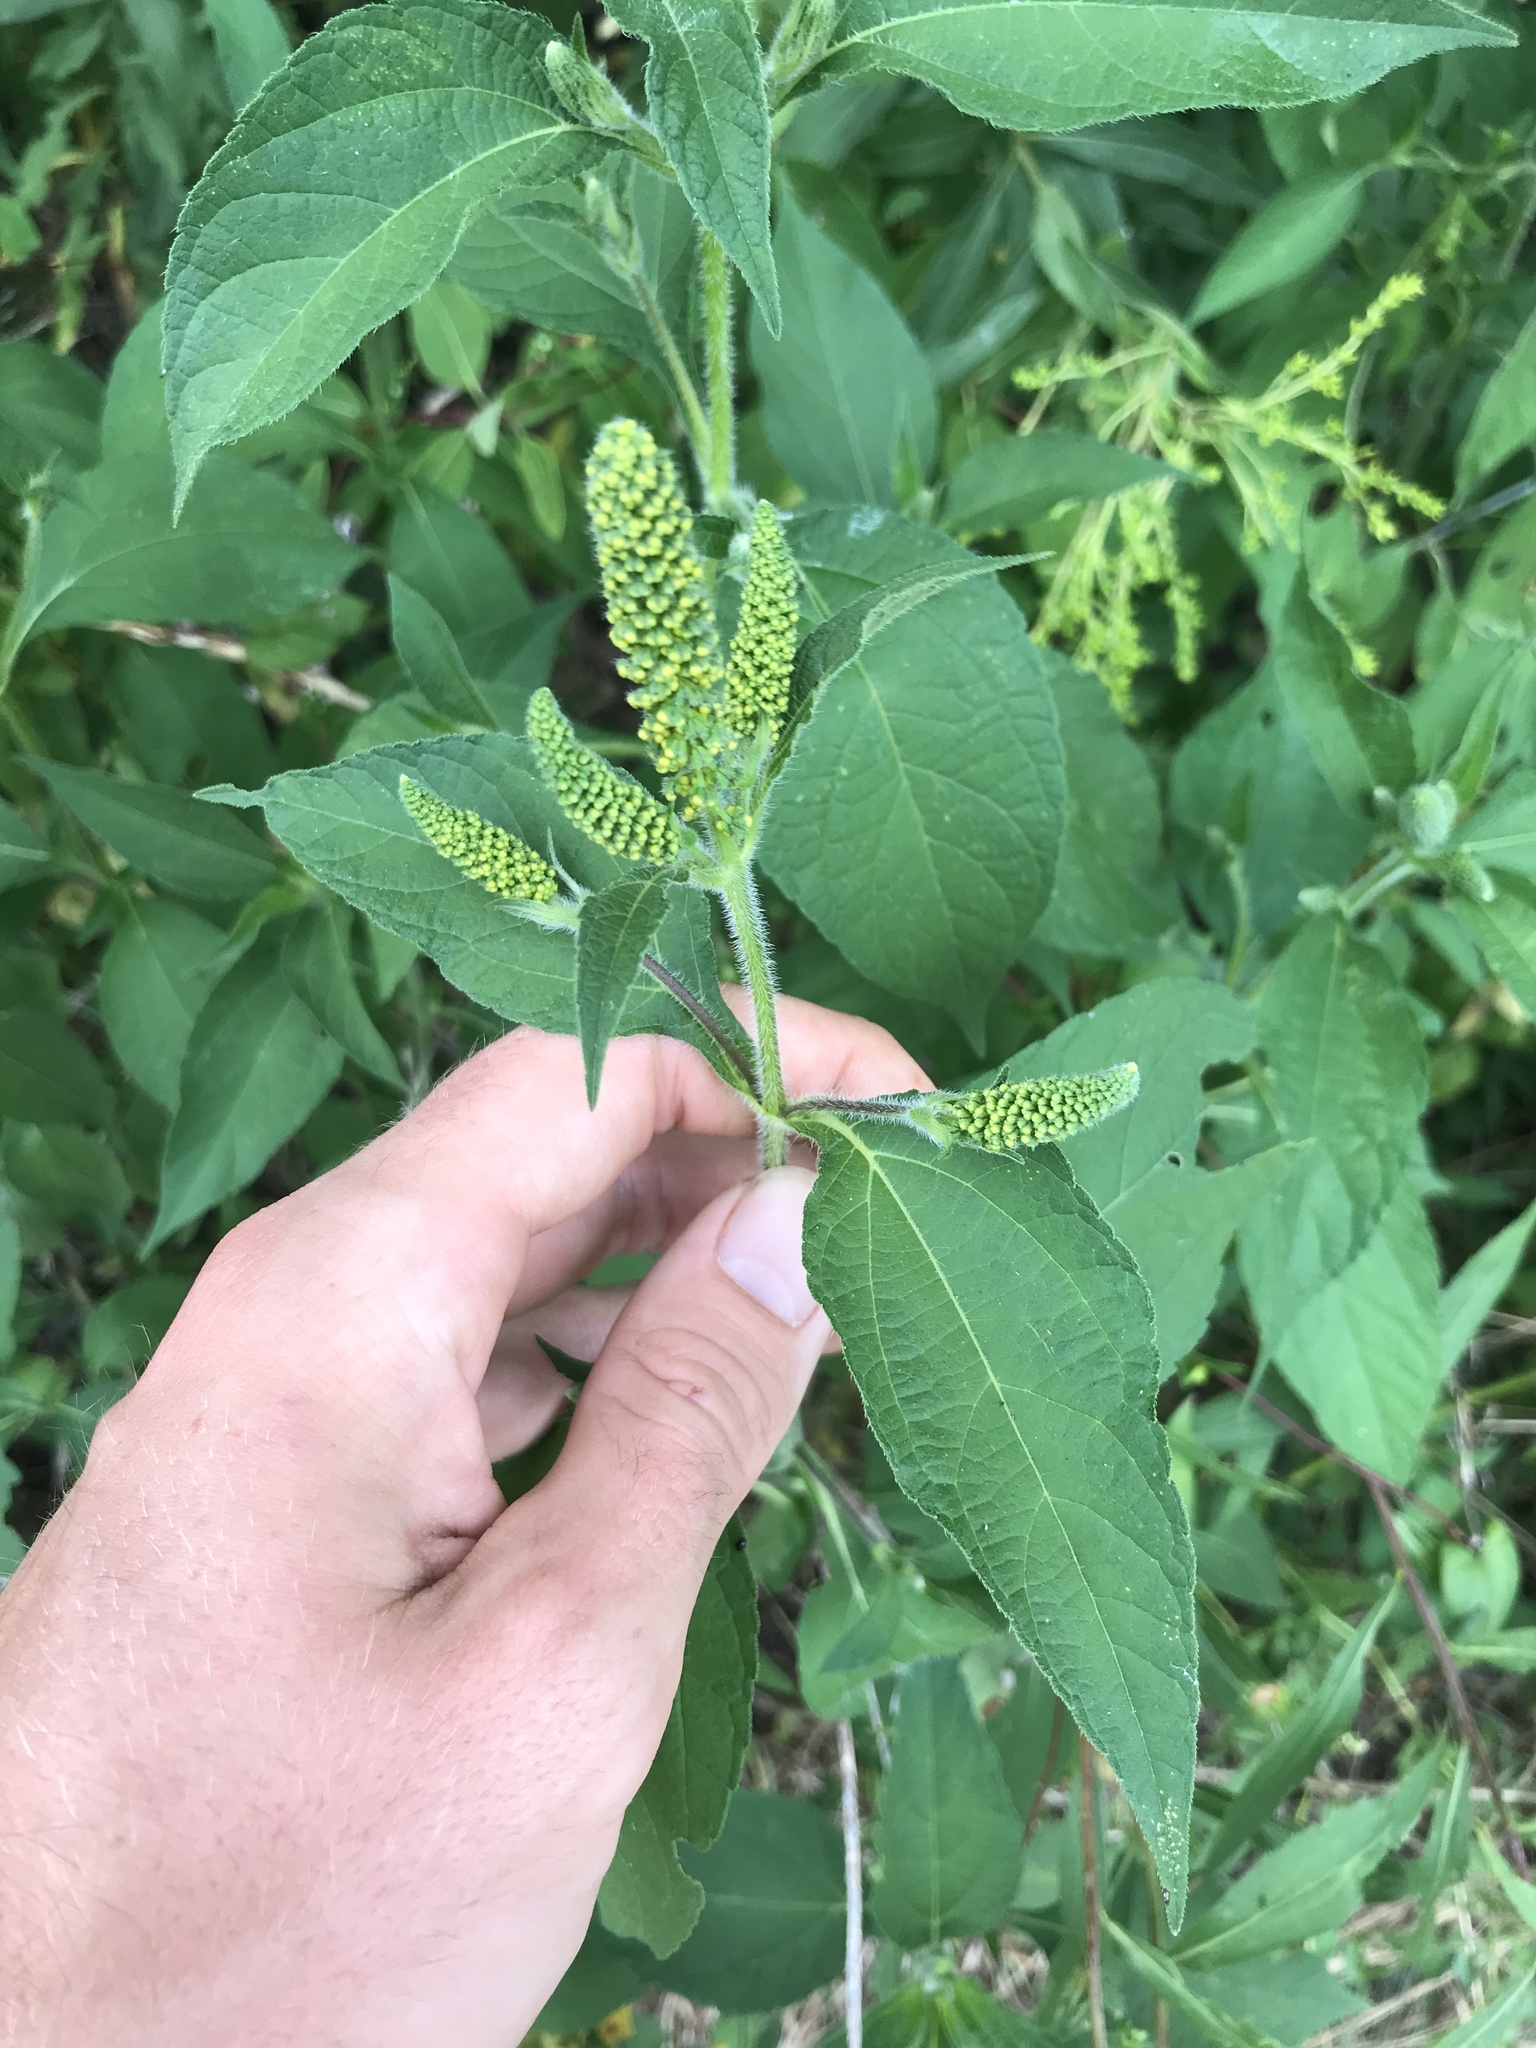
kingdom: Plantae
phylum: Tracheophyta
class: Magnoliopsida
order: Asterales
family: Asteraceae
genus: Ambrosia
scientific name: Ambrosia trifida
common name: Giant ragweed
